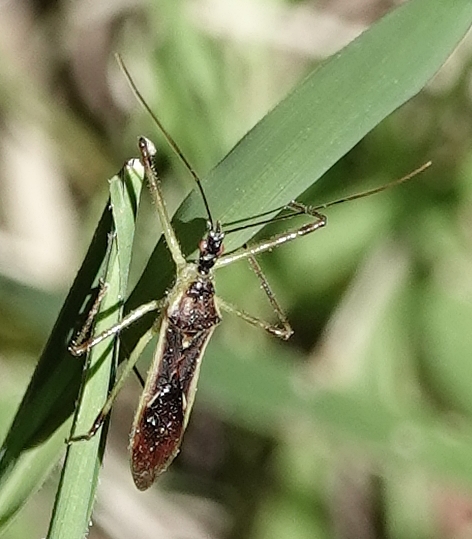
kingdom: Animalia
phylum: Arthropoda
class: Insecta
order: Hemiptera
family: Reduviidae
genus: Zelus
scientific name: Zelus luridus
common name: Pale green assassin bug
